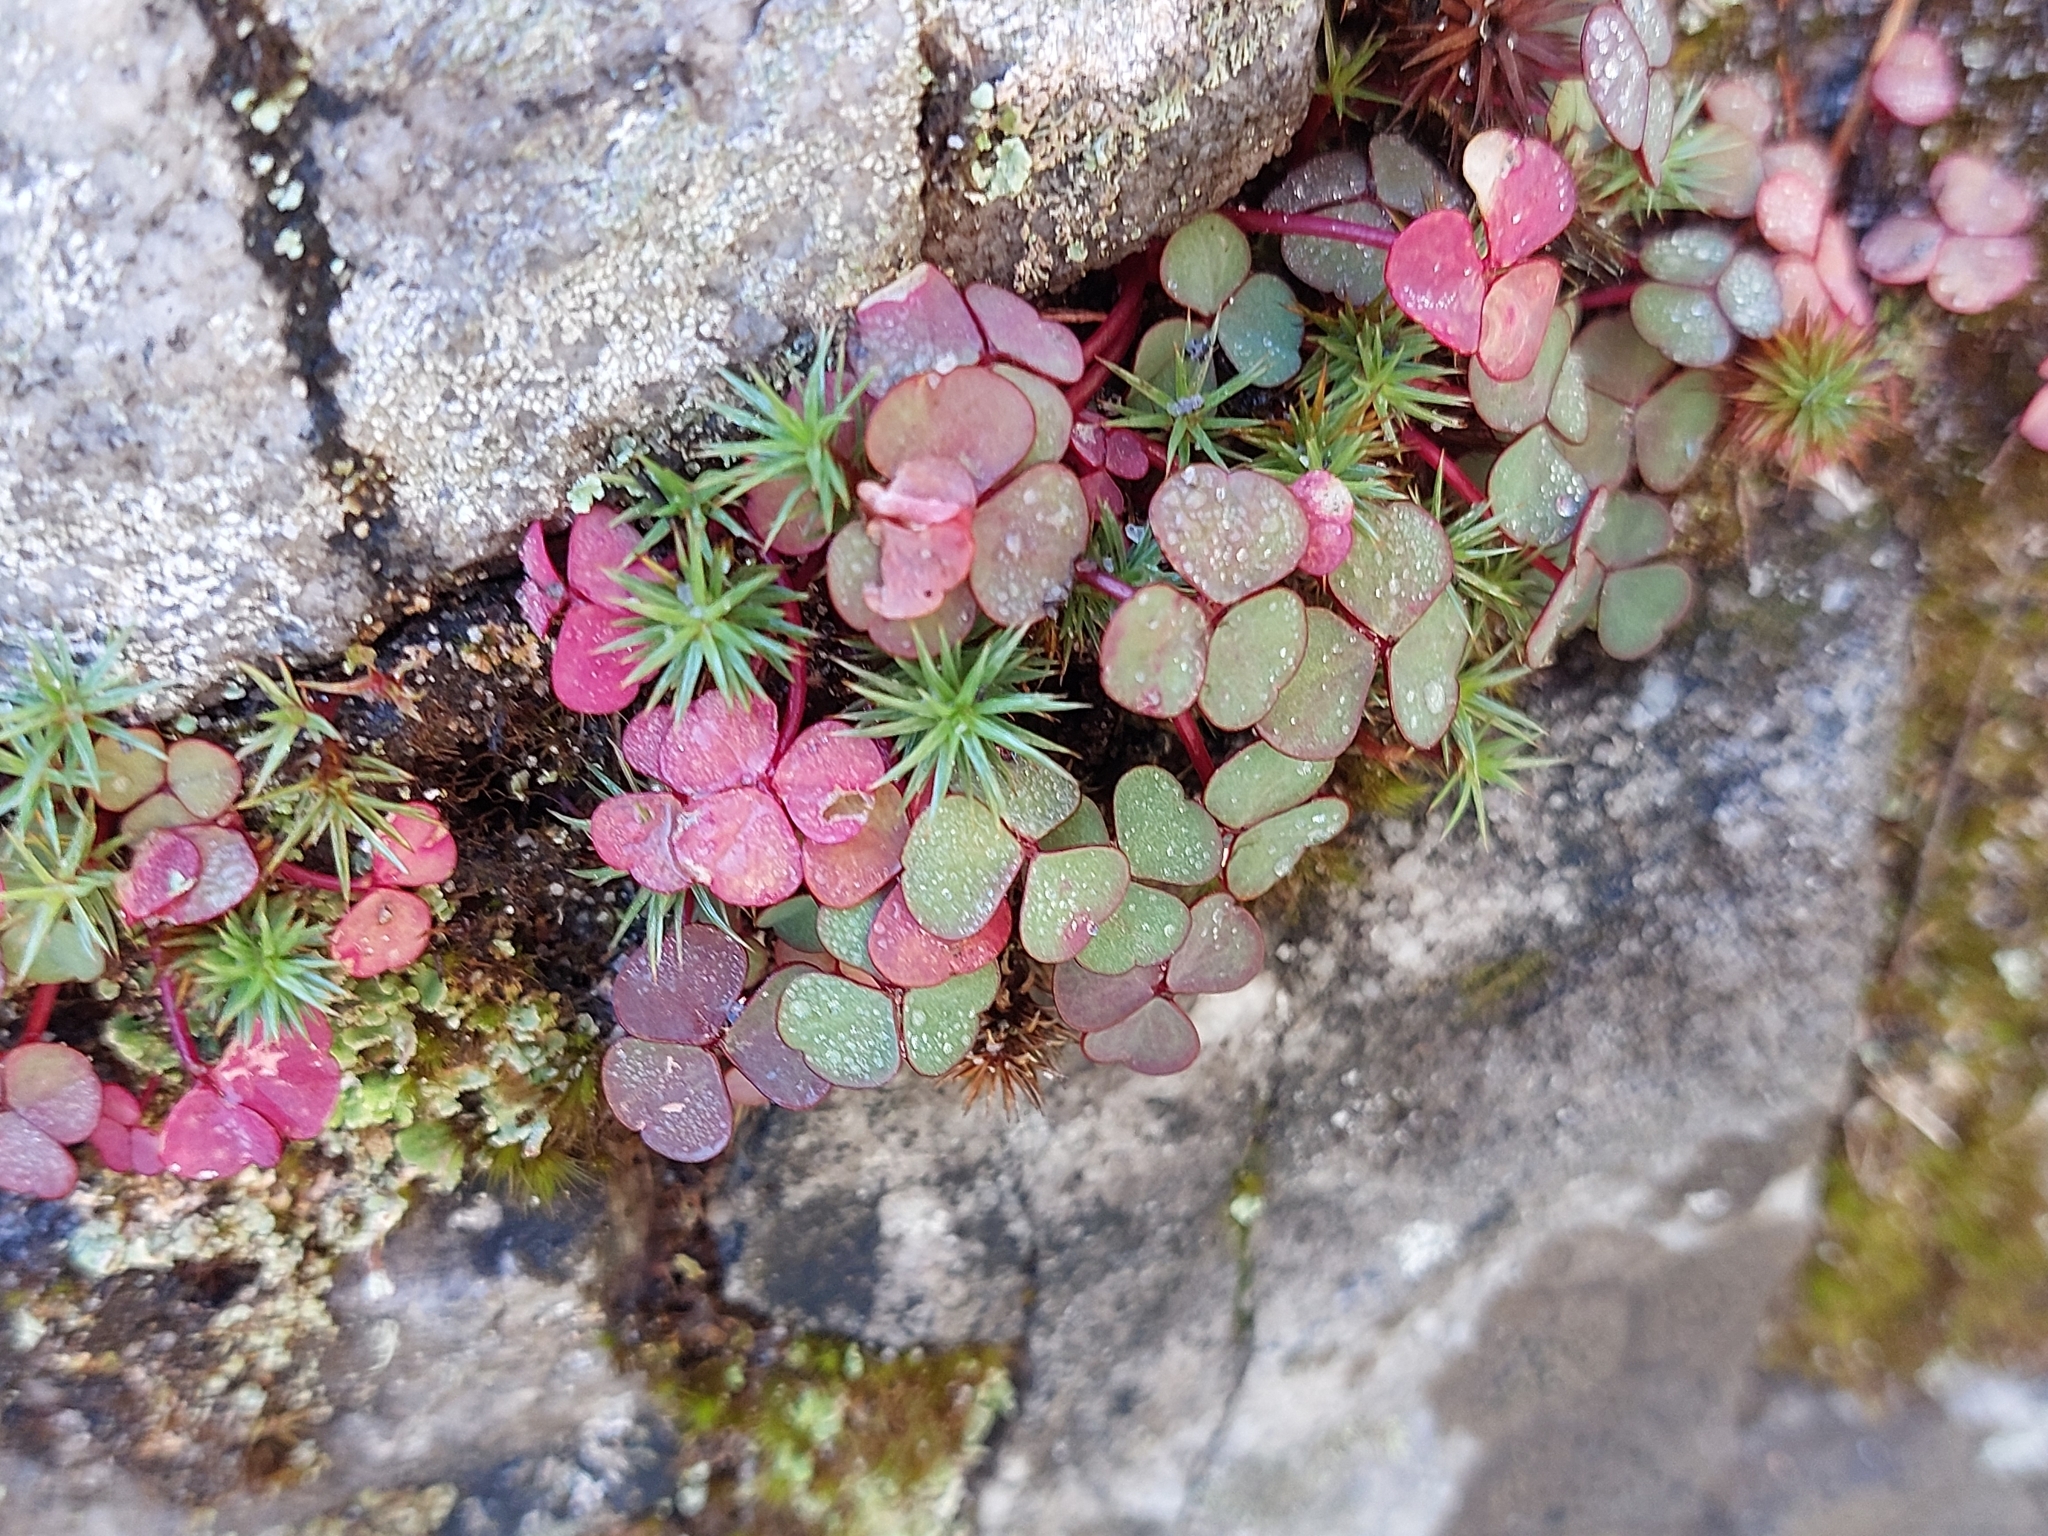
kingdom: Plantae
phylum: Tracheophyta
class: Magnoliopsida
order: Oxalidales
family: Oxalidaceae
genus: Oxalis
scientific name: Oxalis commutata
